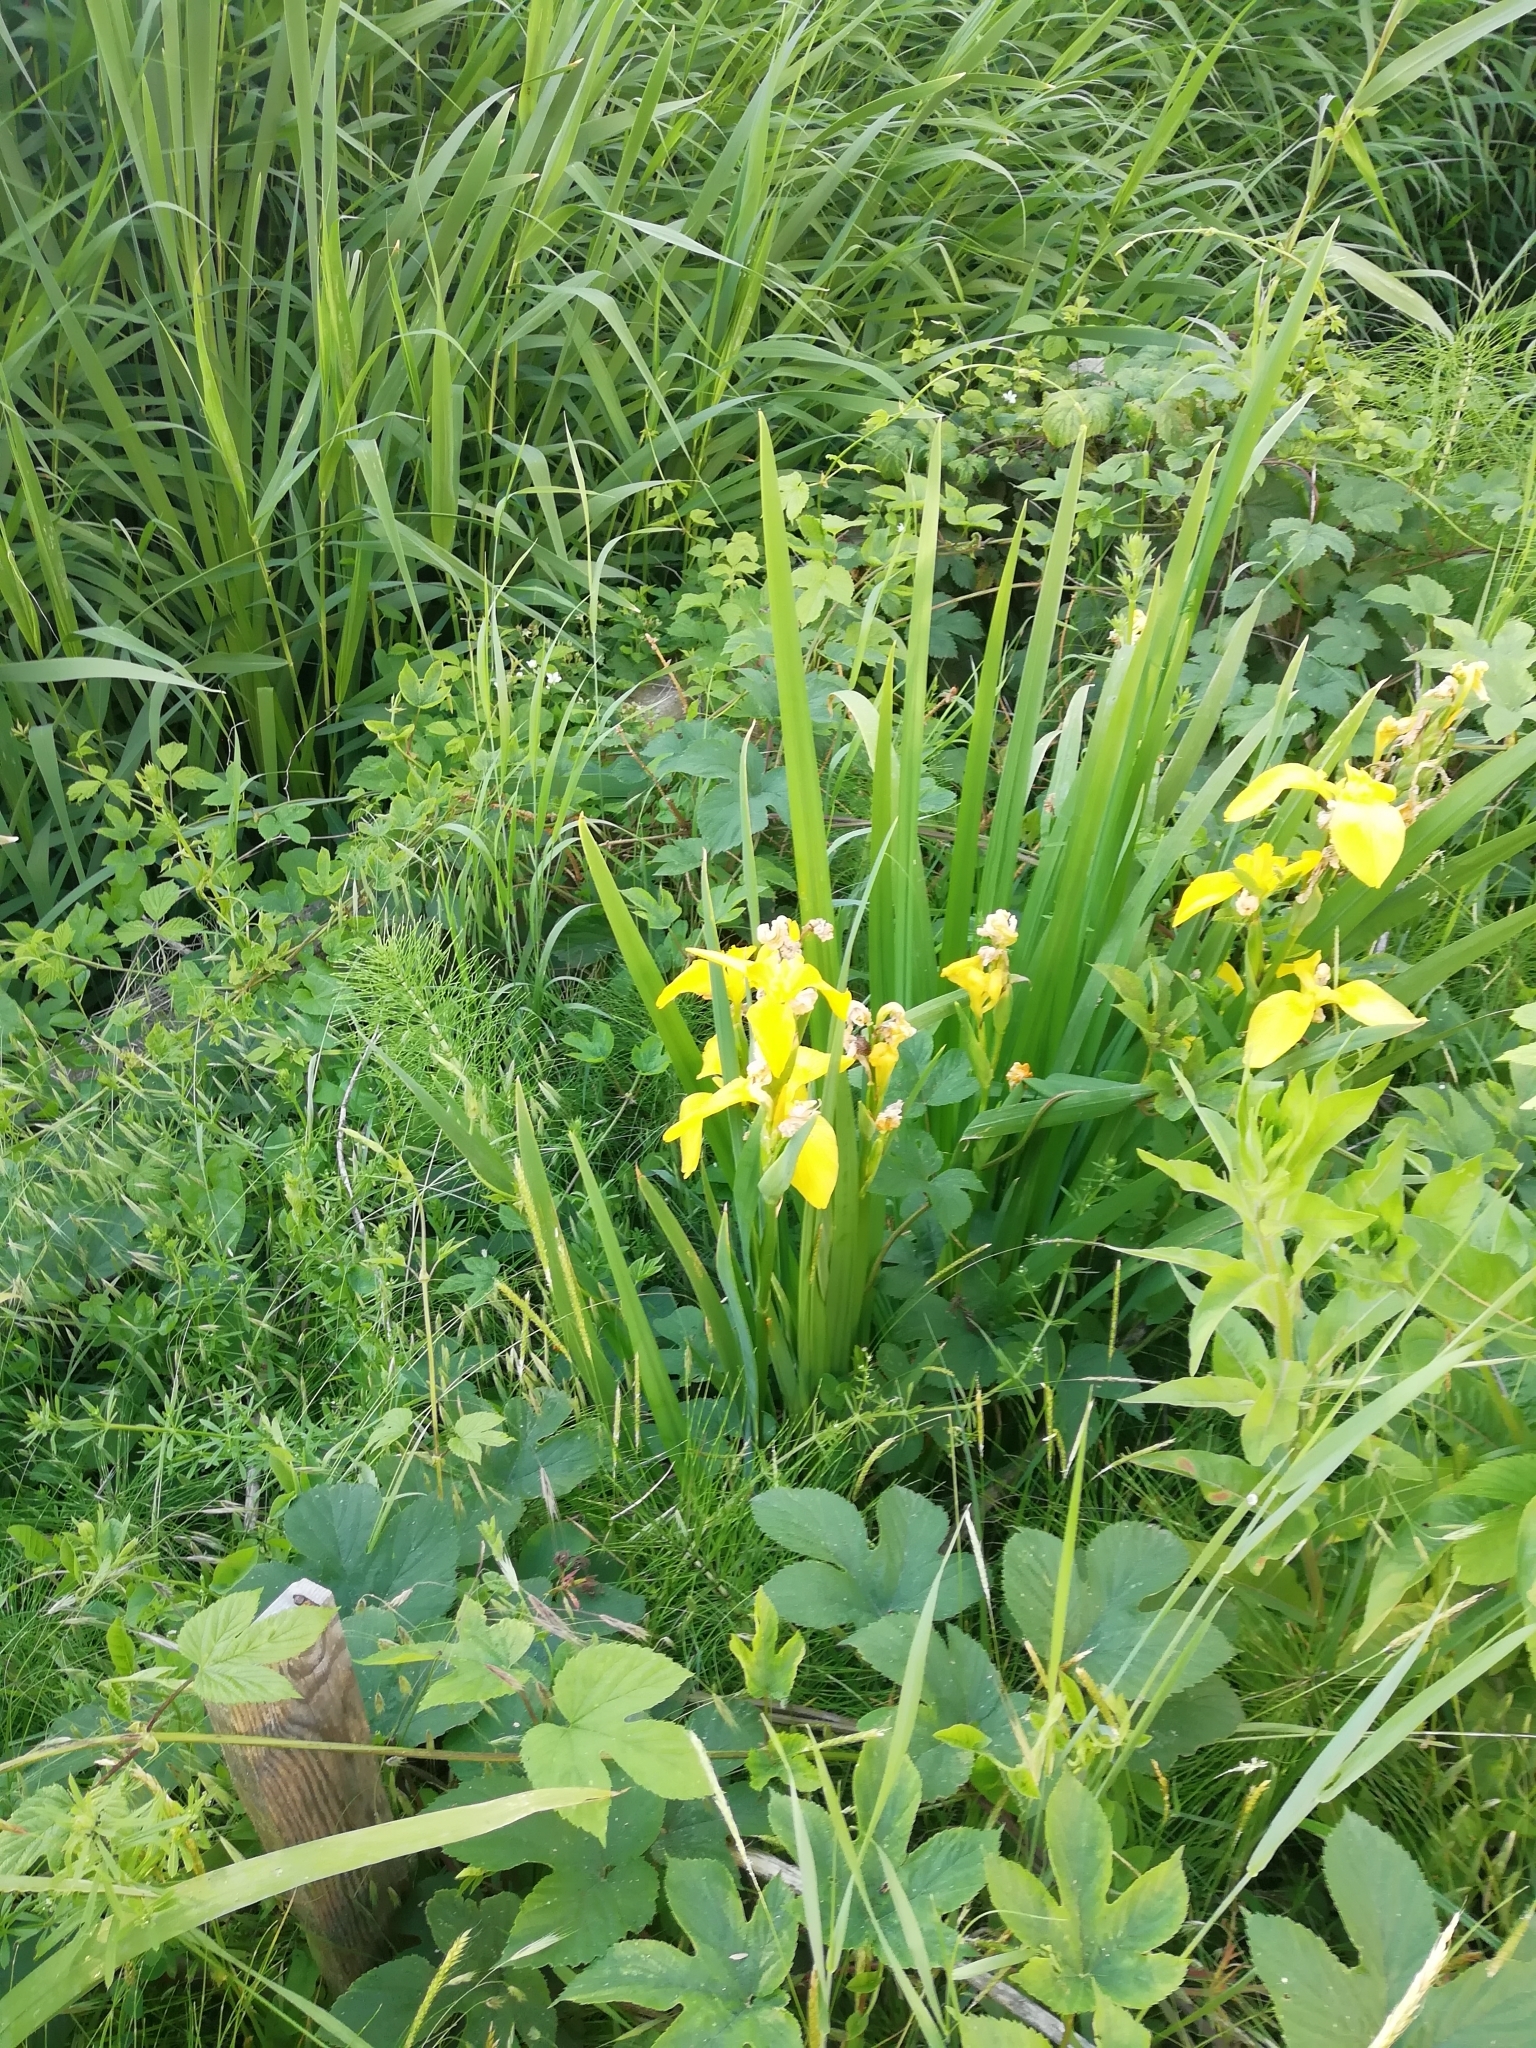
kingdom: Plantae
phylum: Tracheophyta
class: Liliopsida
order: Asparagales
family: Iridaceae
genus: Iris
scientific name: Iris pseudacorus
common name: Yellow flag
